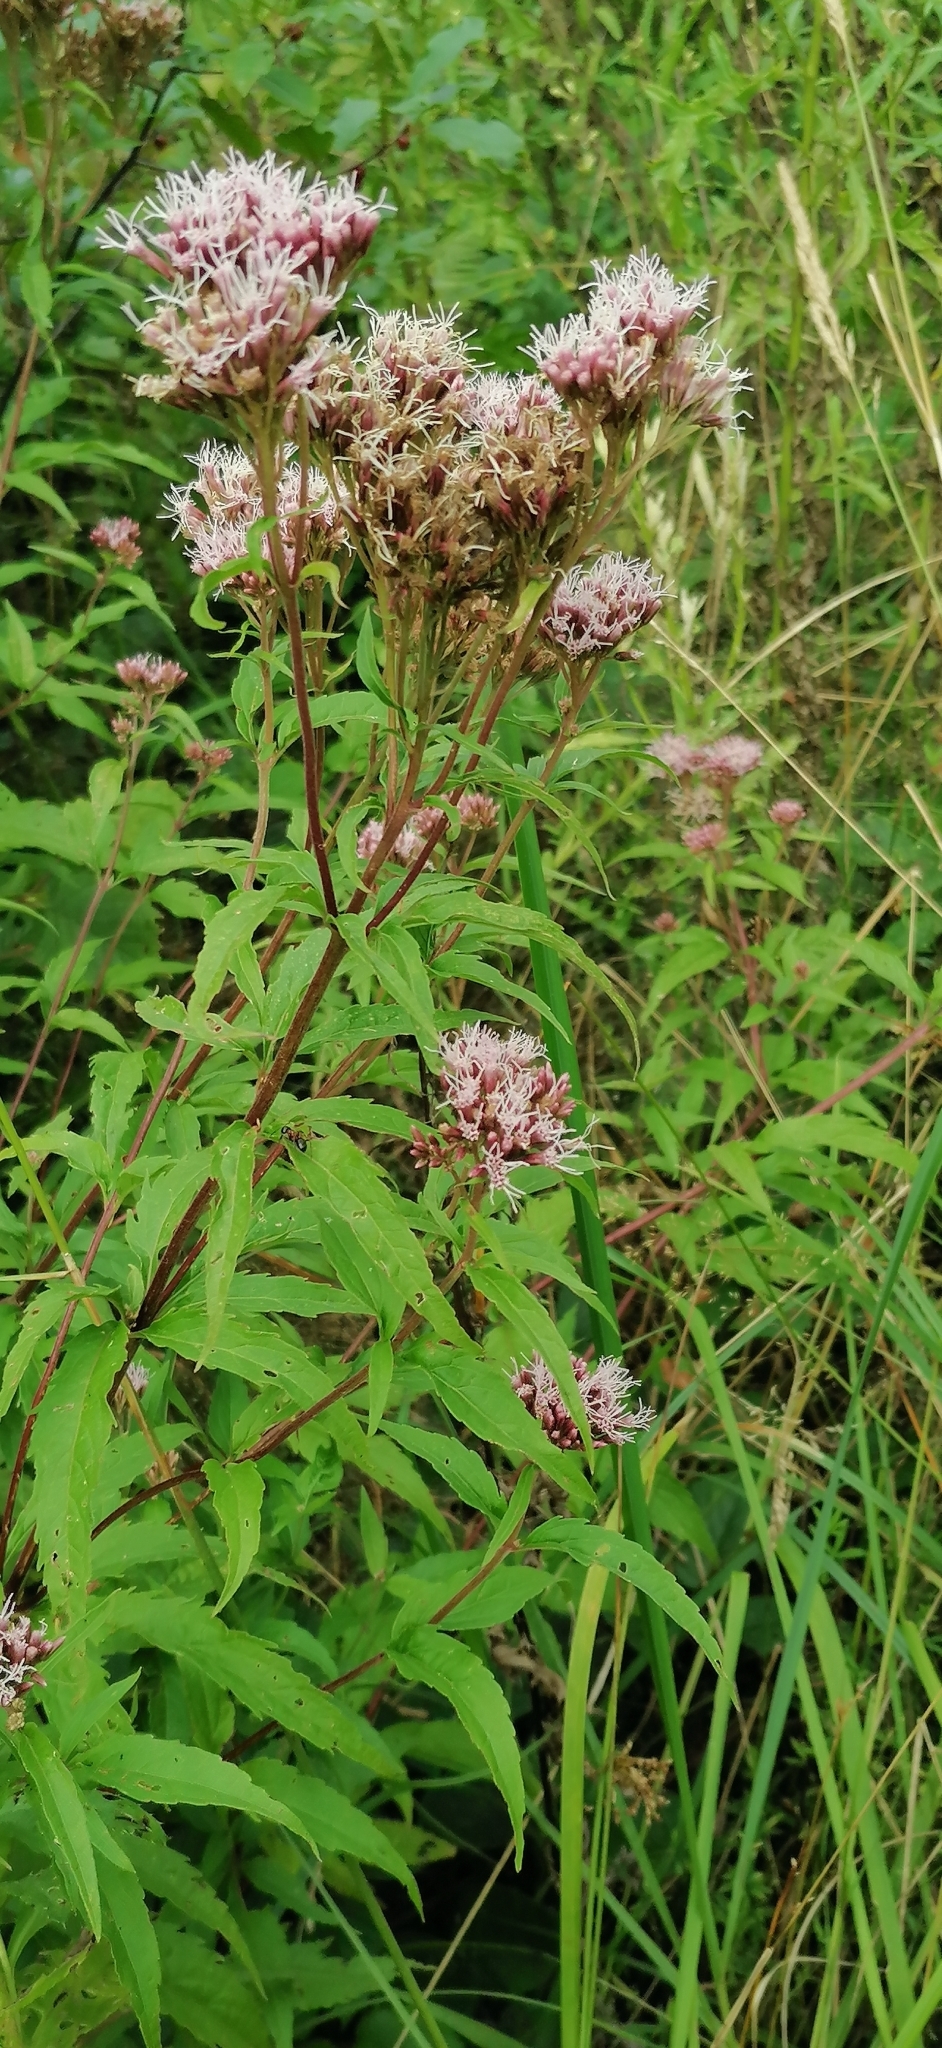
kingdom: Plantae
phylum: Tracheophyta
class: Magnoliopsida
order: Asterales
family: Asteraceae
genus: Eupatorium
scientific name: Eupatorium cannabinum
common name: Hemp-agrimony
